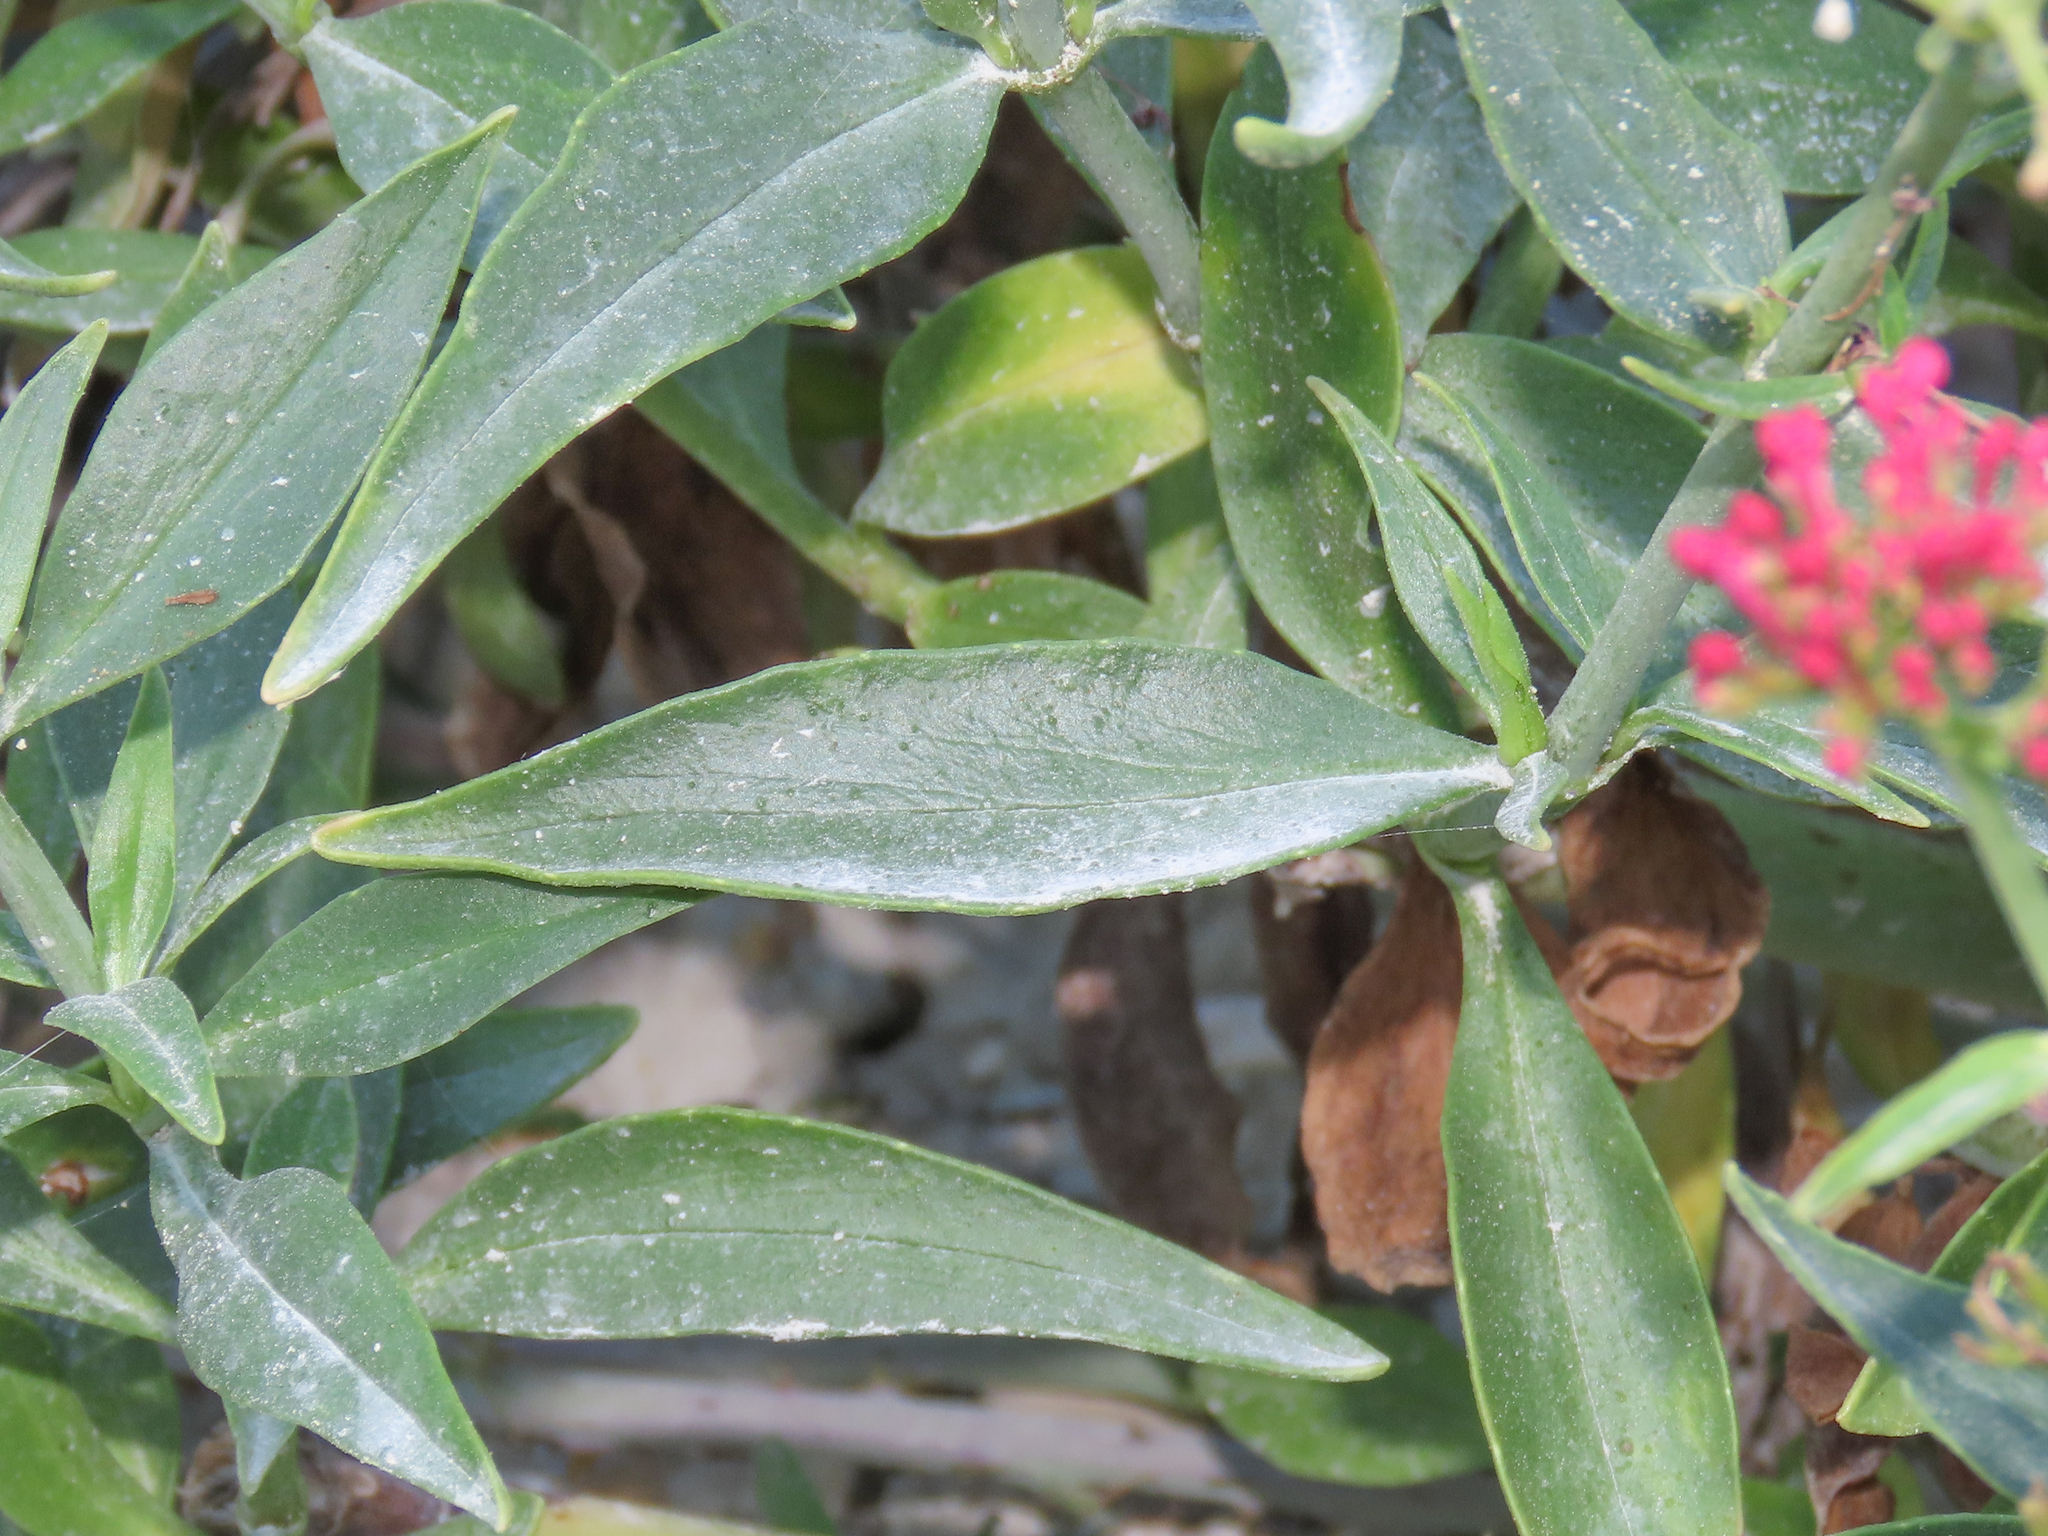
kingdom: Plantae
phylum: Tracheophyta
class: Magnoliopsida
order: Dipsacales
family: Caprifoliaceae
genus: Centranthus
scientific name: Centranthus ruber
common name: Red valerian
